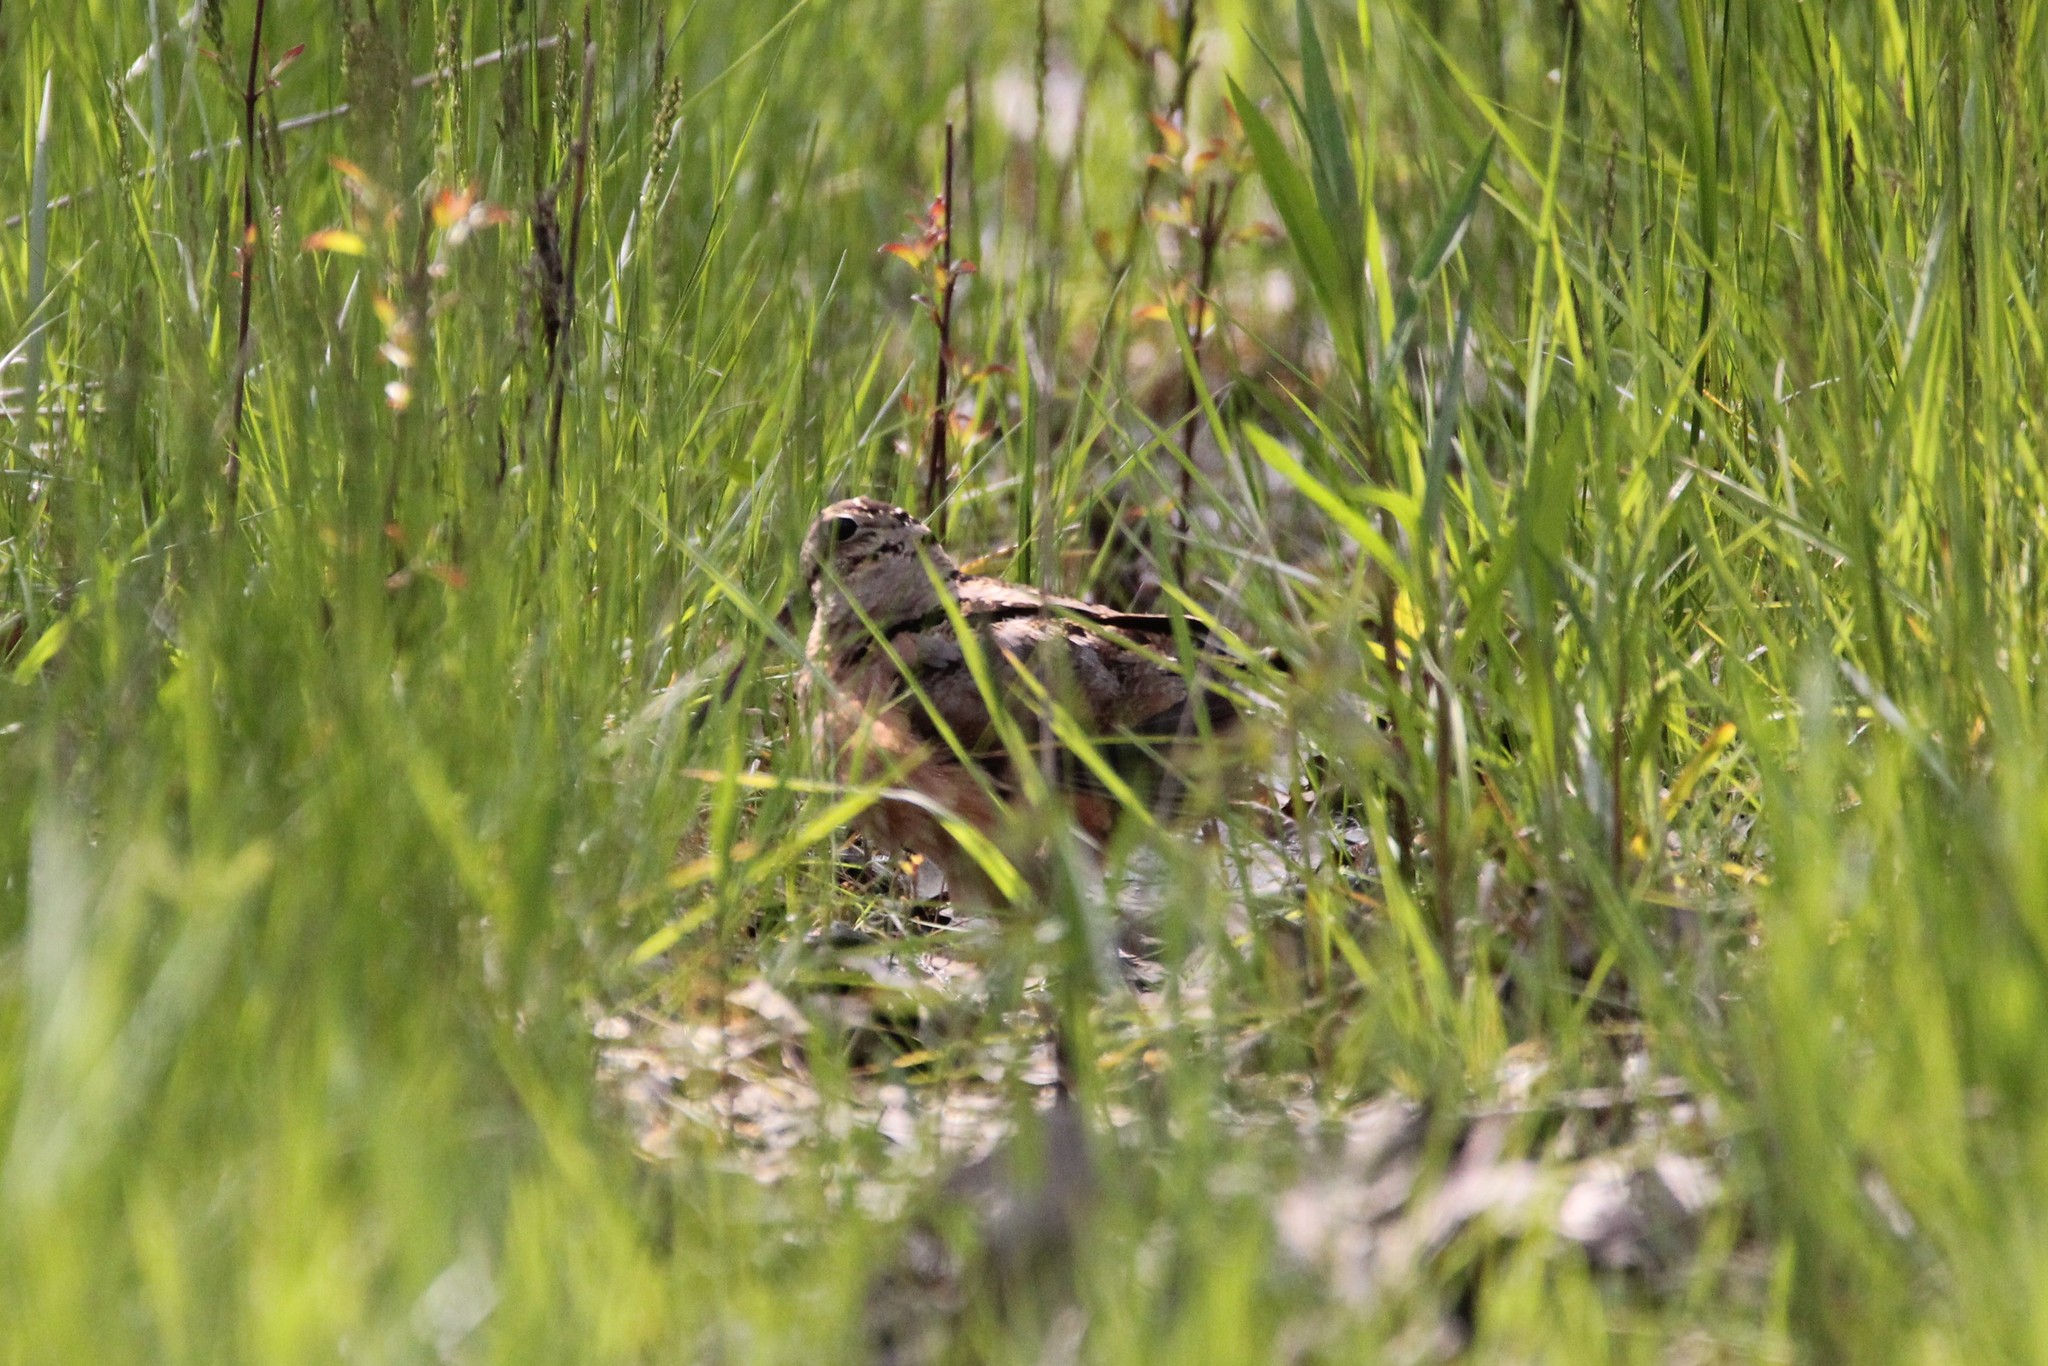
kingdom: Animalia
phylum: Chordata
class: Aves
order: Charadriiformes
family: Scolopacidae
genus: Scolopax
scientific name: Scolopax minor
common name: American woodcock
